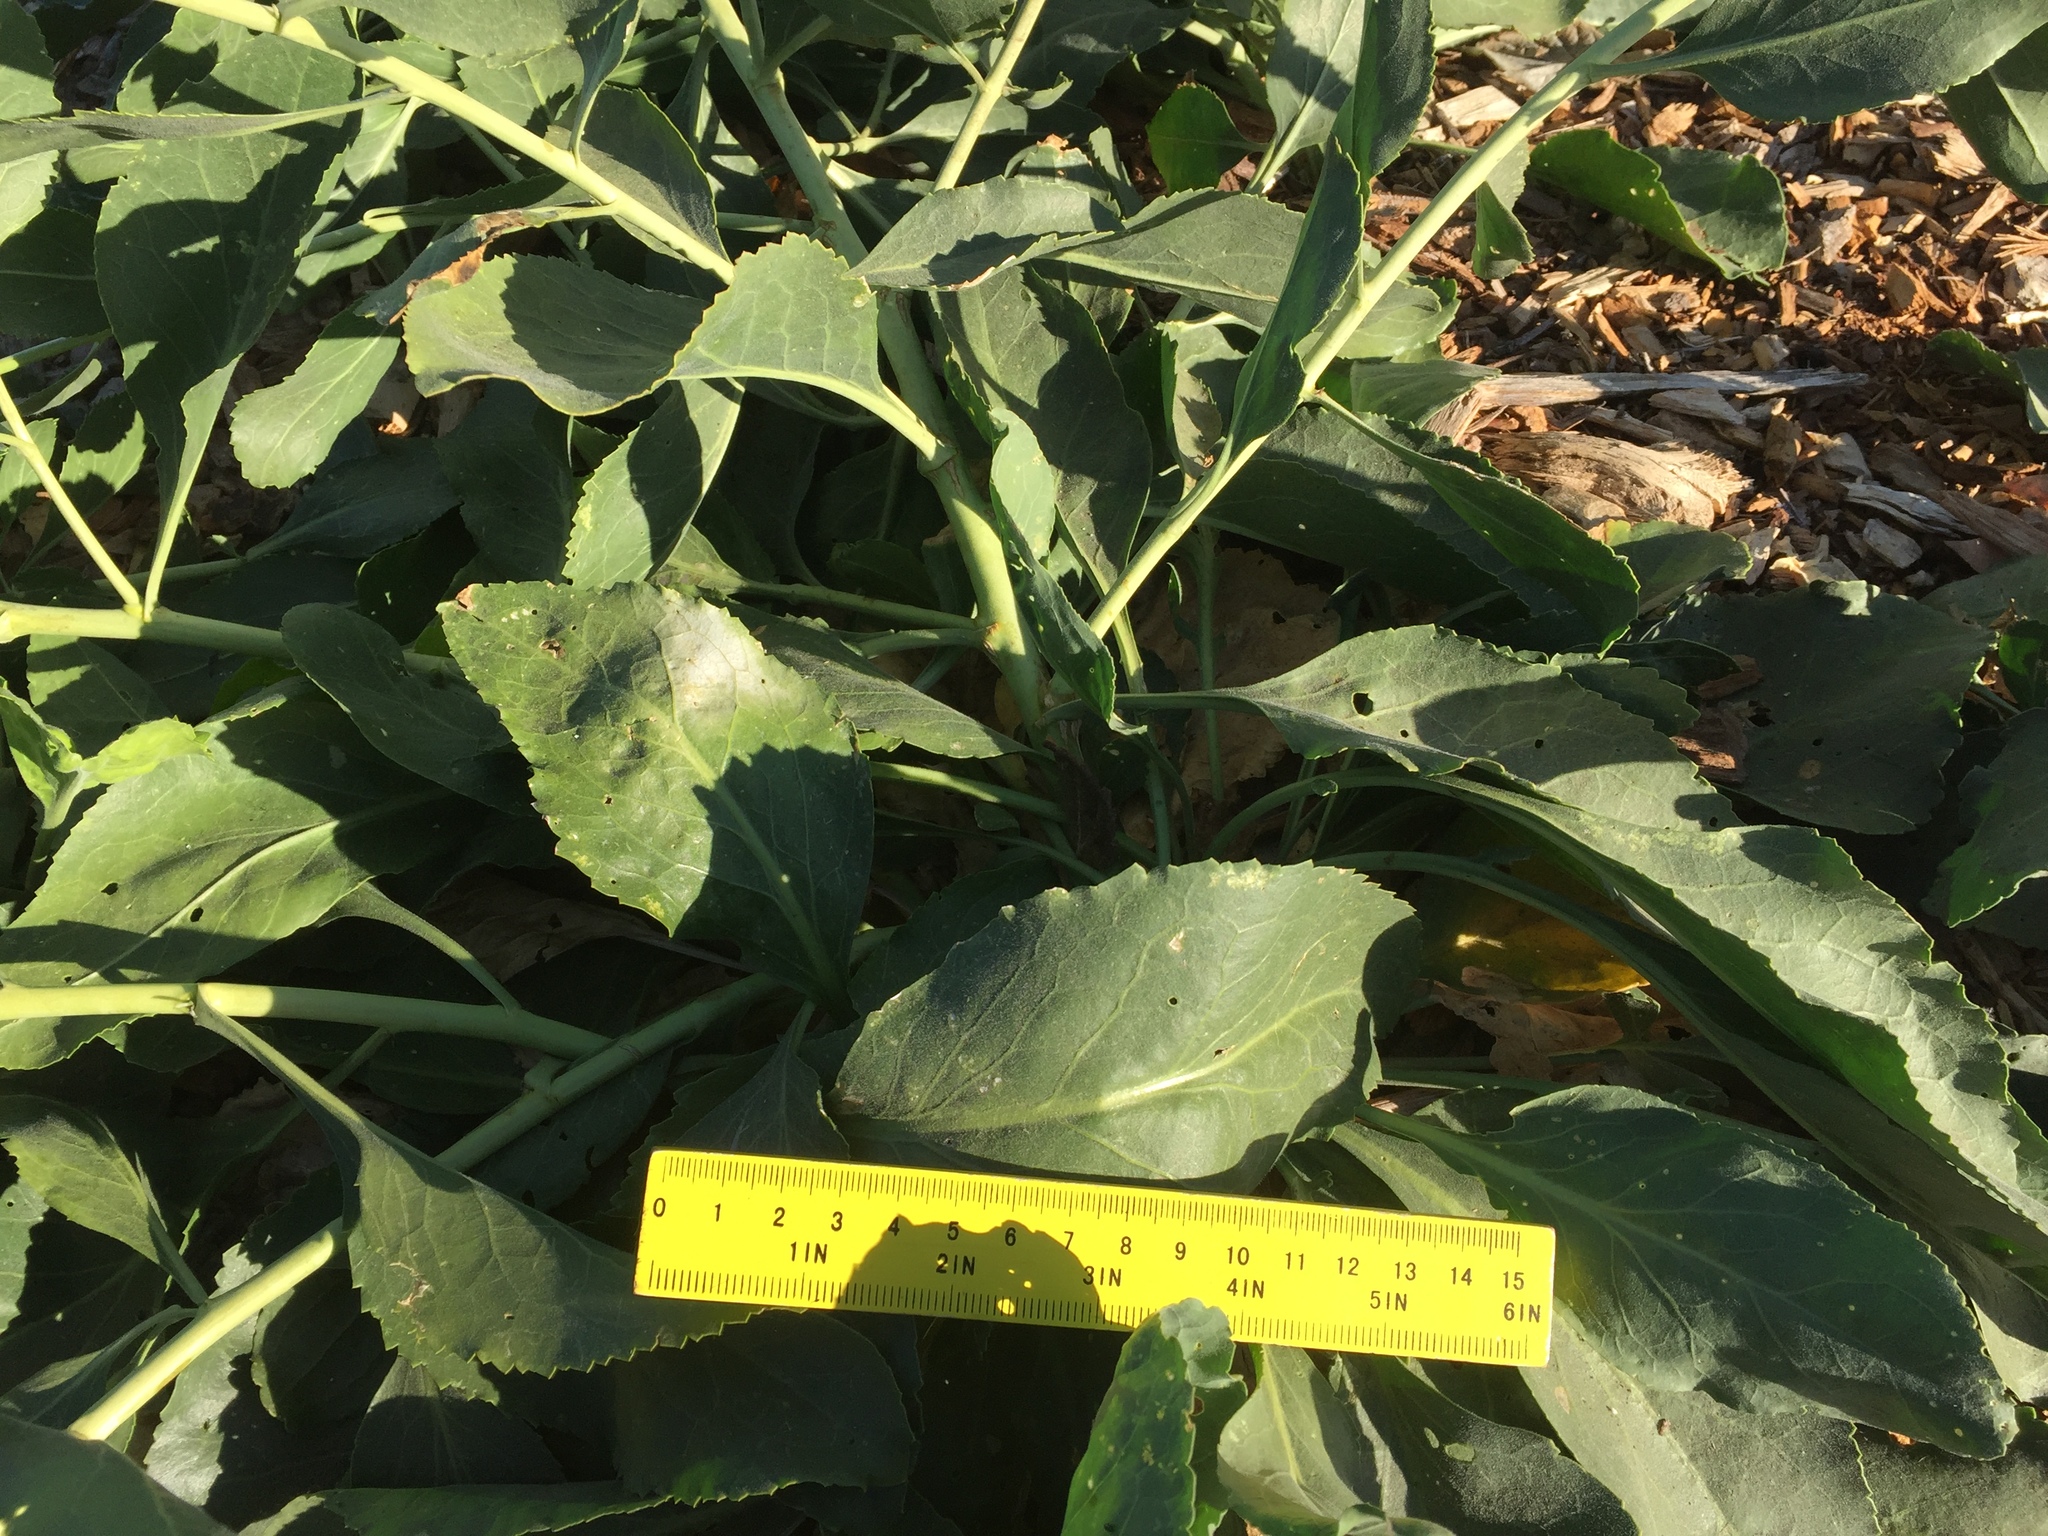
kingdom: Plantae
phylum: Tracheophyta
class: Magnoliopsida
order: Brassicales
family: Brassicaceae
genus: Lepidium
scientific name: Lepidium latifolium
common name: Dittander
